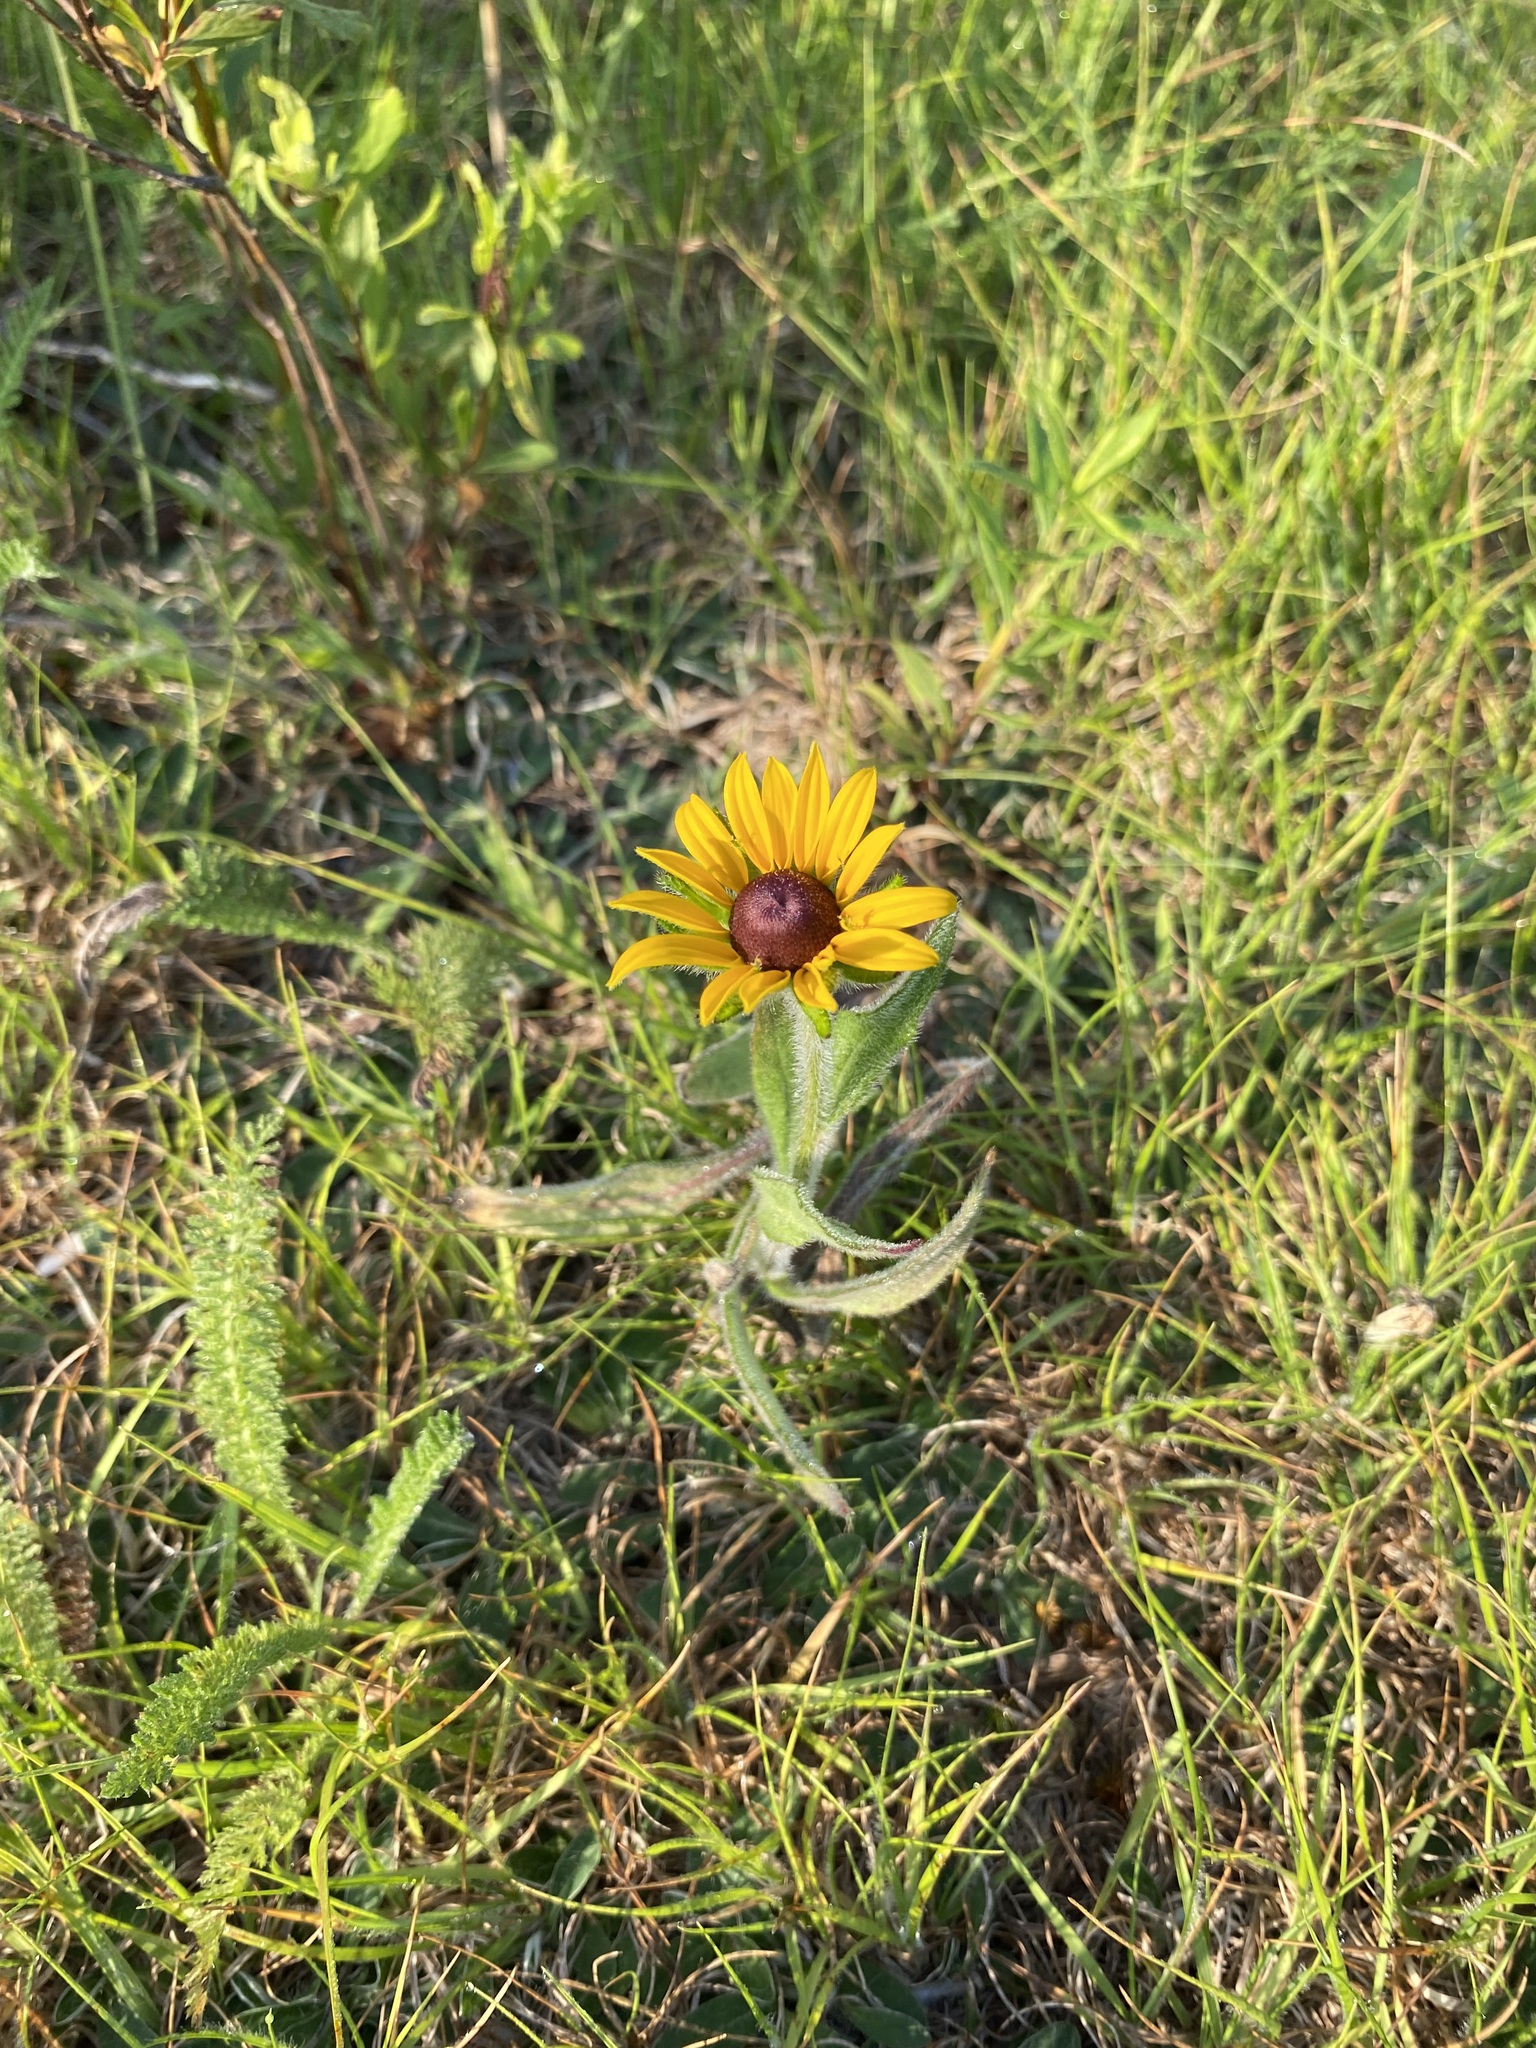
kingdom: Plantae
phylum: Tracheophyta
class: Magnoliopsida
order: Asterales
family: Asteraceae
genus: Rudbeckia
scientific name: Rudbeckia hirta
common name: Black-eyed-susan
